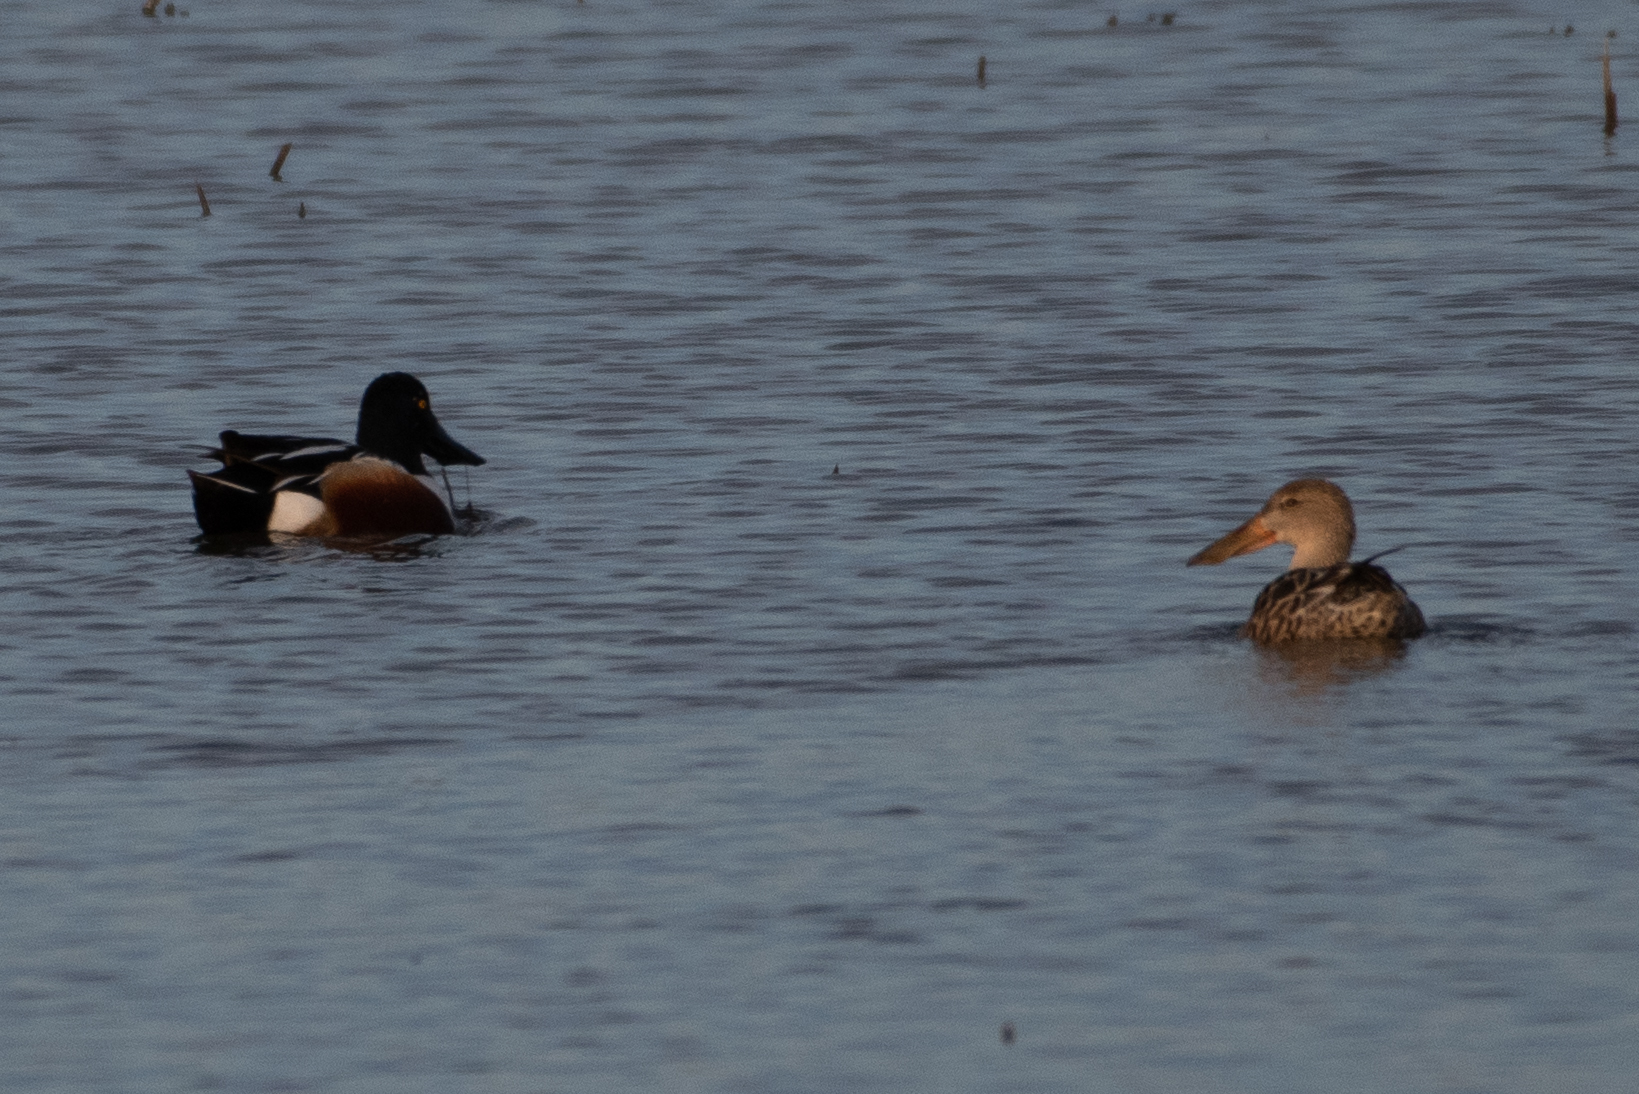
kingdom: Animalia
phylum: Chordata
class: Aves
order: Anseriformes
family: Anatidae
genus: Spatula
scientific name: Spatula clypeata
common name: Northern shoveler
